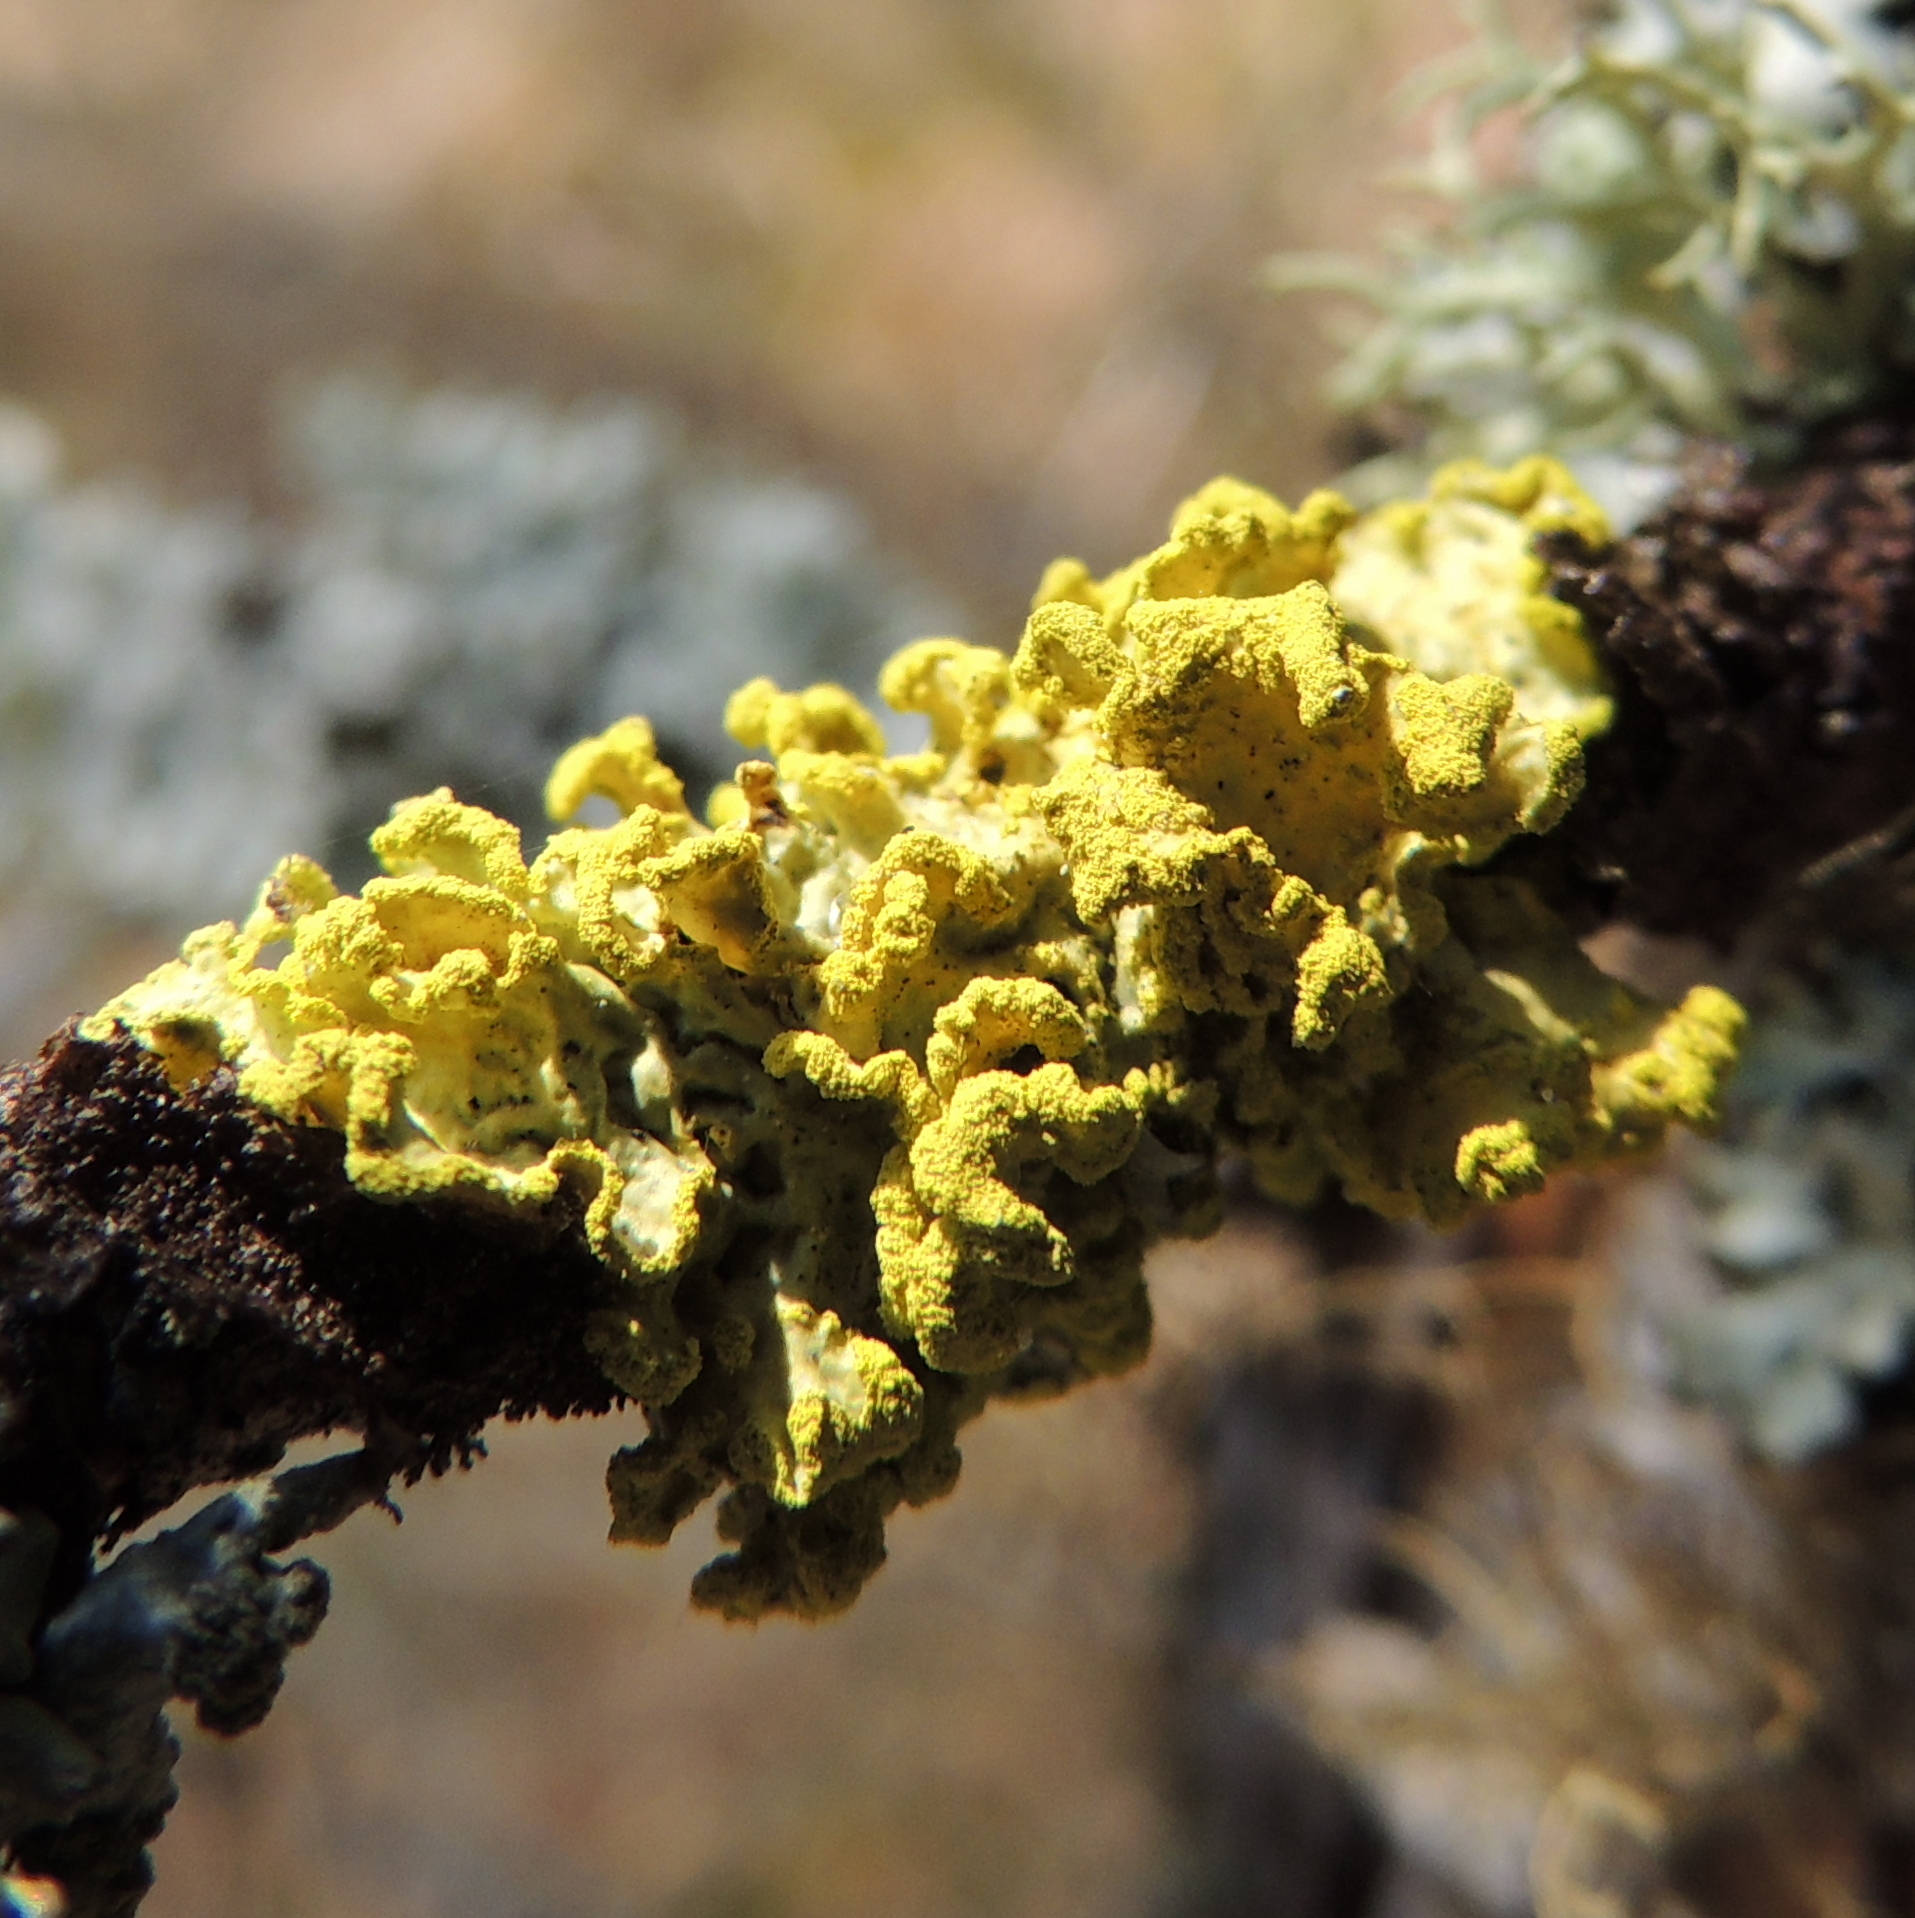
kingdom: Fungi
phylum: Ascomycota
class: Lecanoromycetes
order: Lecanorales
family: Parmeliaceae
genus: Vulpicida
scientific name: Vulpicida pinastri
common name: Powdered sunshine lichen
